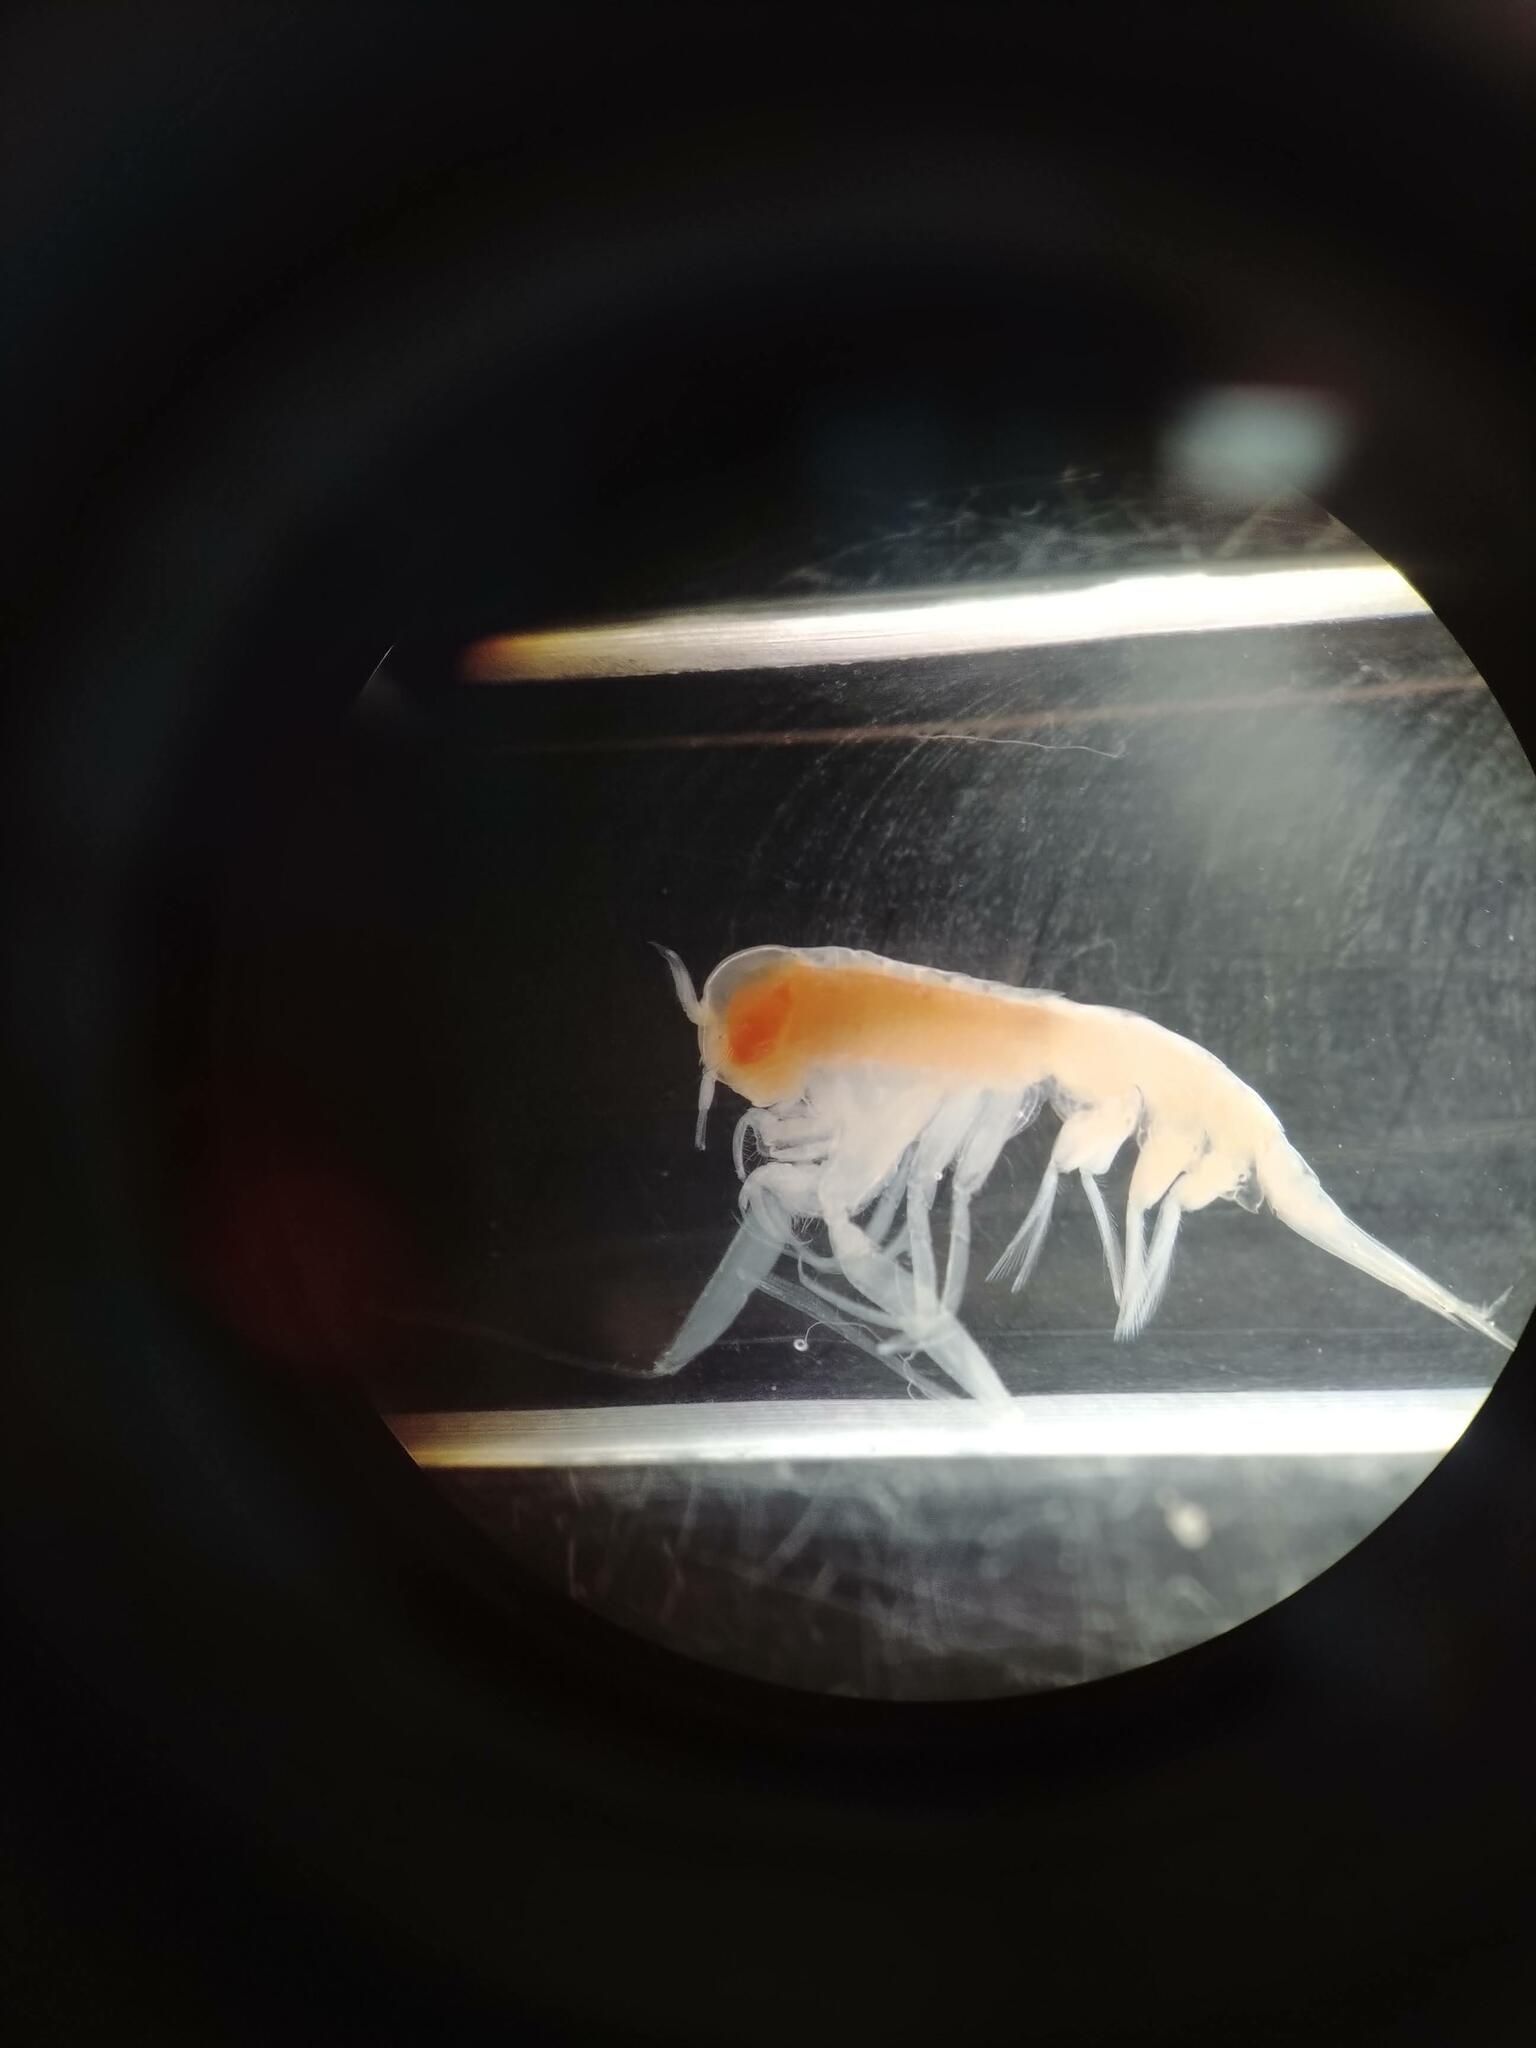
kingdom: Animalia
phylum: Arthropoda
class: Malacostraca
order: Amphipoda
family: Hyperiidae
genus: Themisto
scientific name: Themisto compressa
